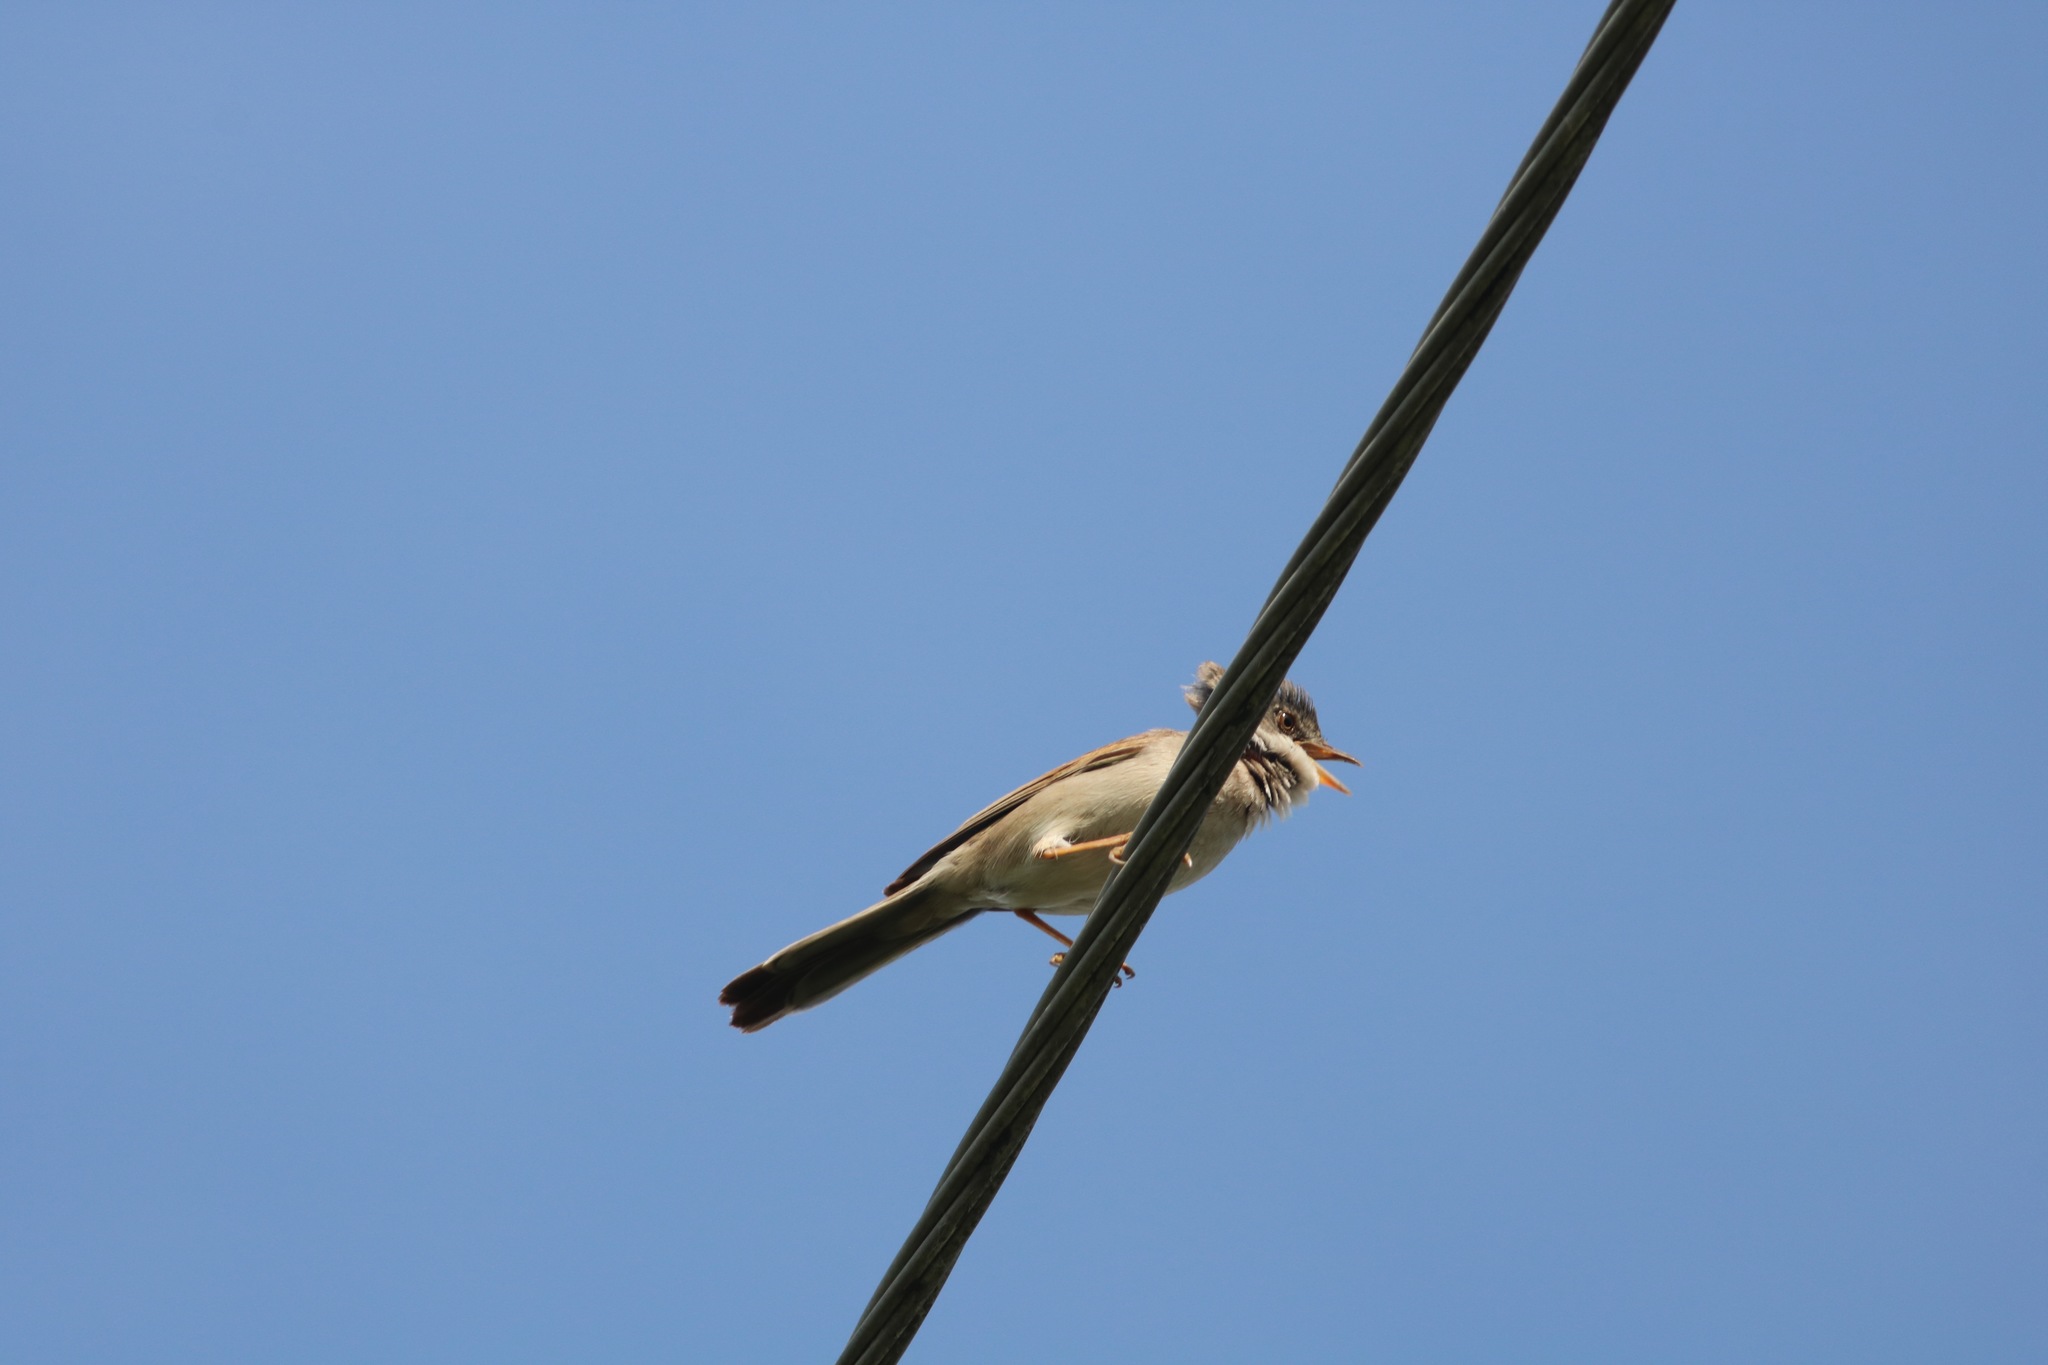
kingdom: Animalia
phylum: Chordata
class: Aves
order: Passeriformes
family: Sylviidae
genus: Sylvia
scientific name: Sylvia communis
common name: Common whitethroat
